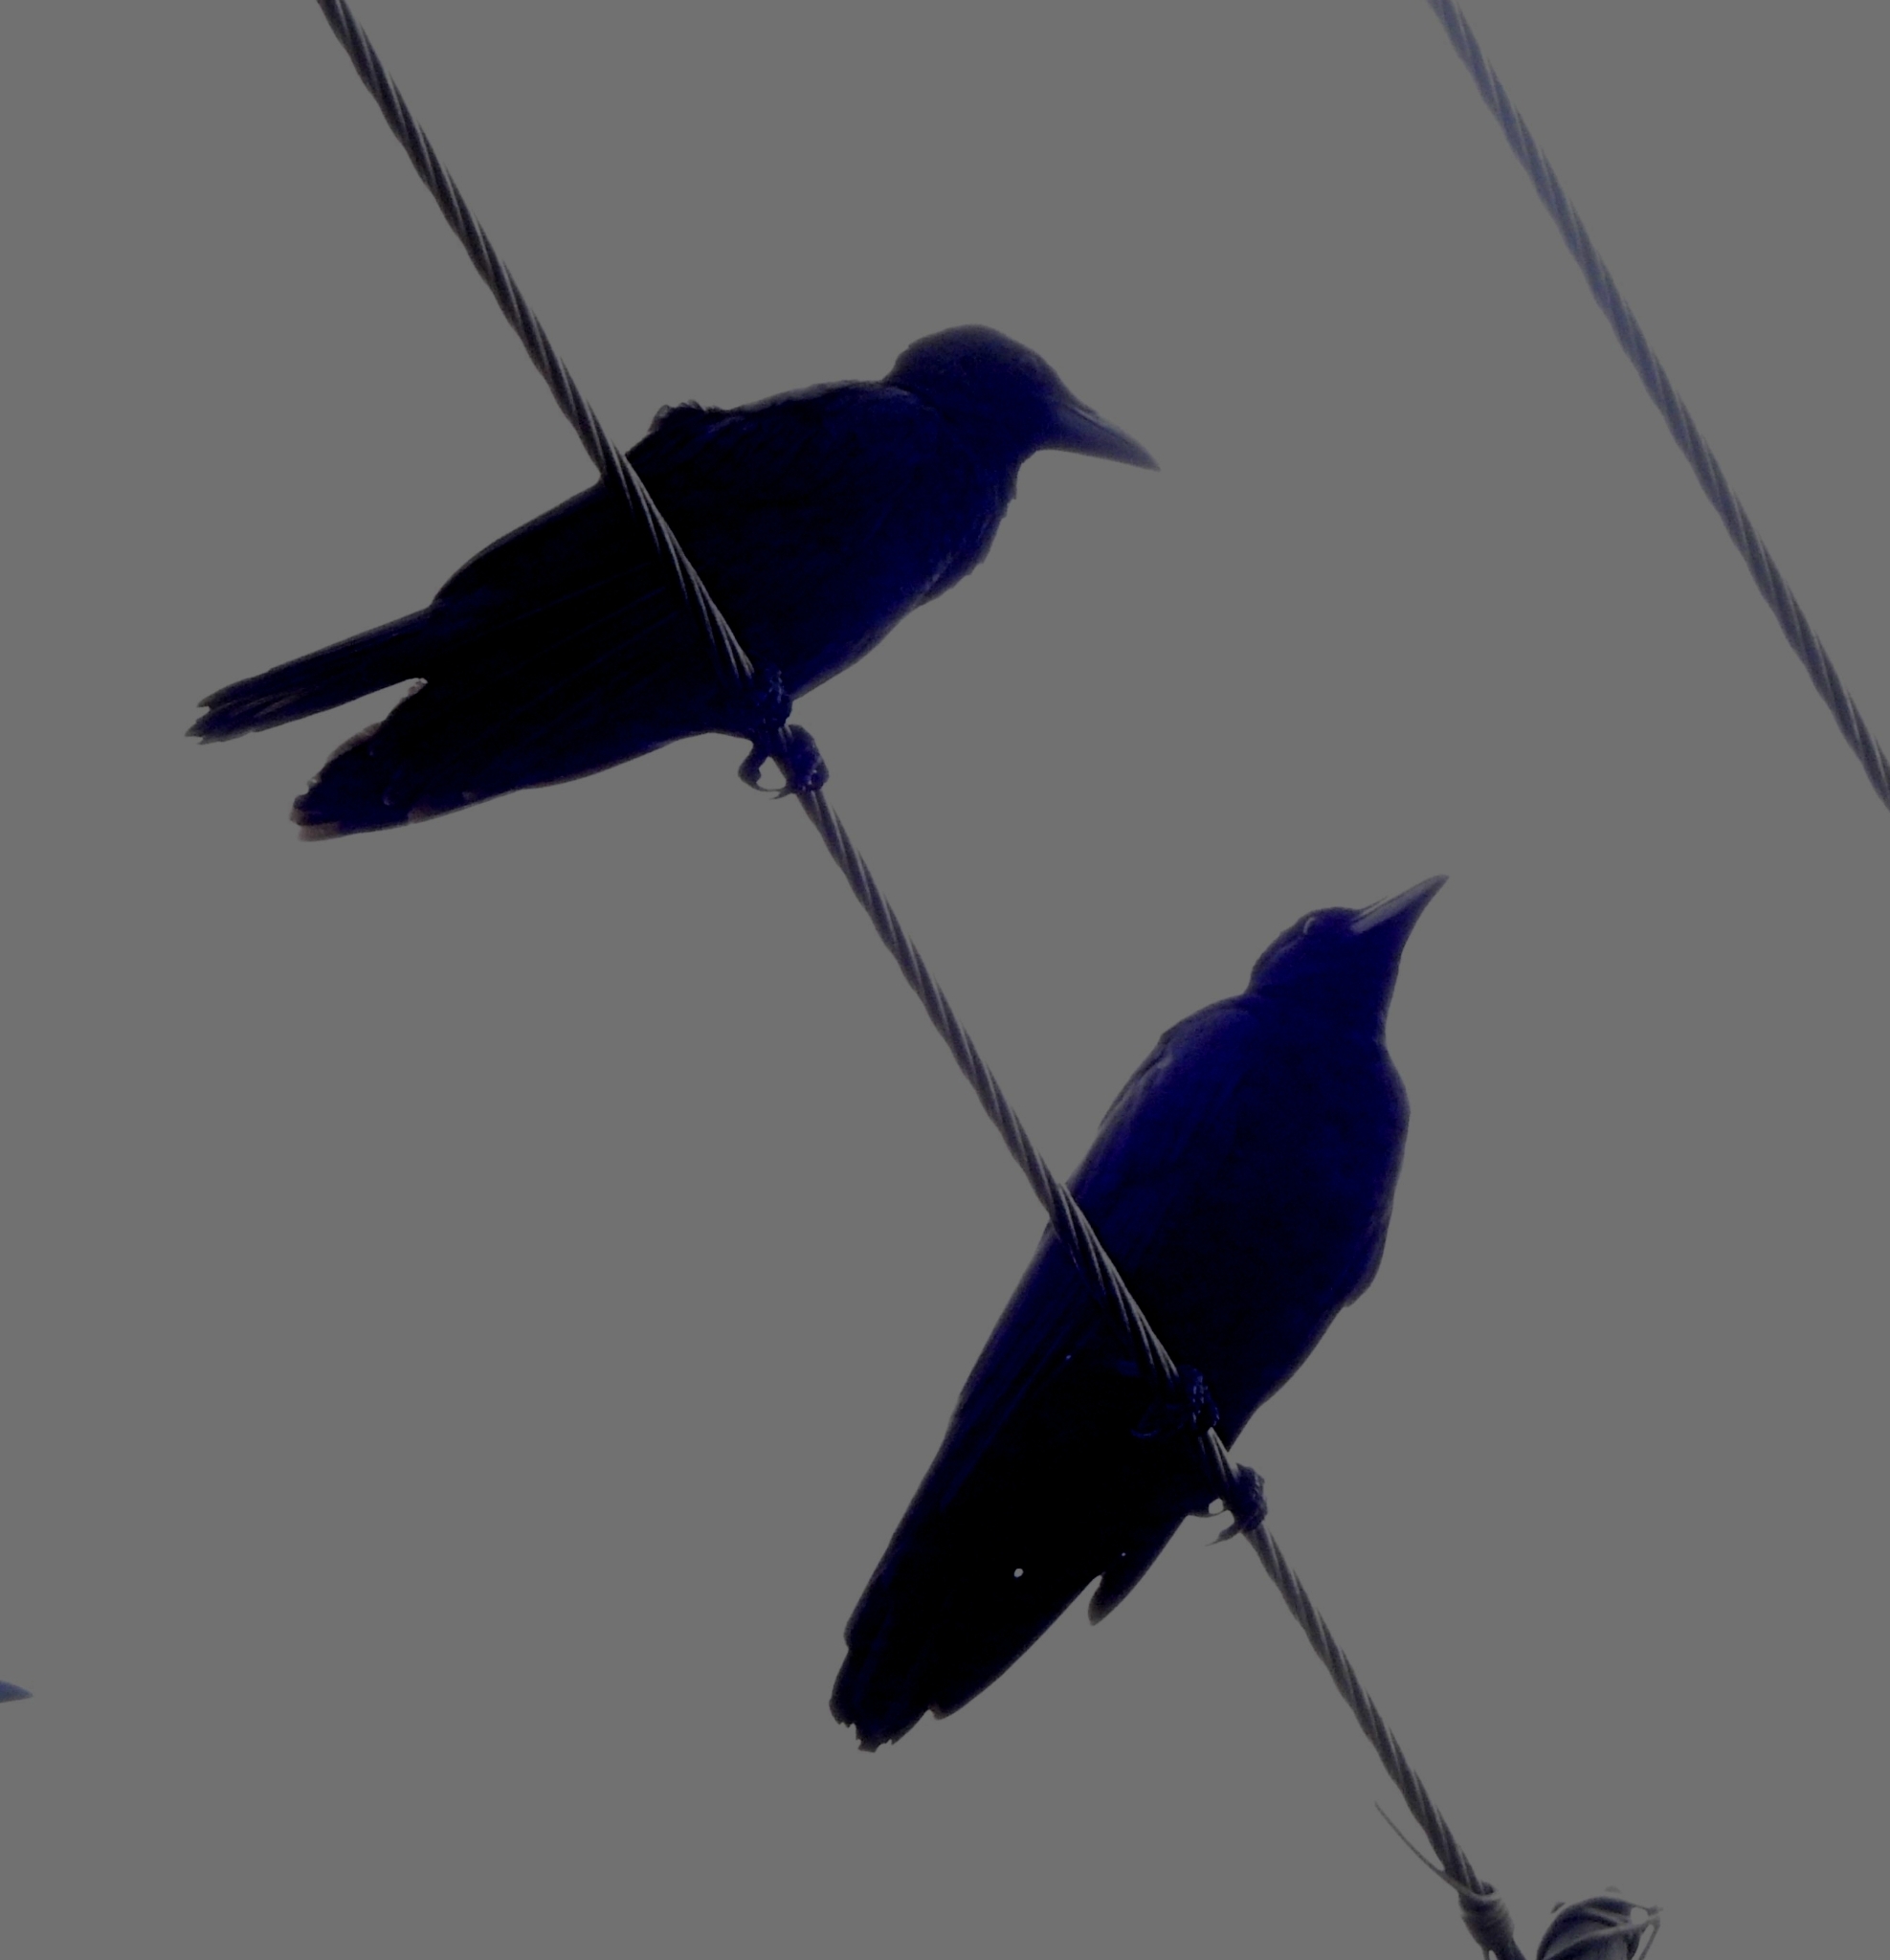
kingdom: Animalia
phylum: Chordata
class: Aves
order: Passeriformes
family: Corvidae
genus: Corvus
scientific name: Corvus macrorhynchos
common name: Large-billed crow
